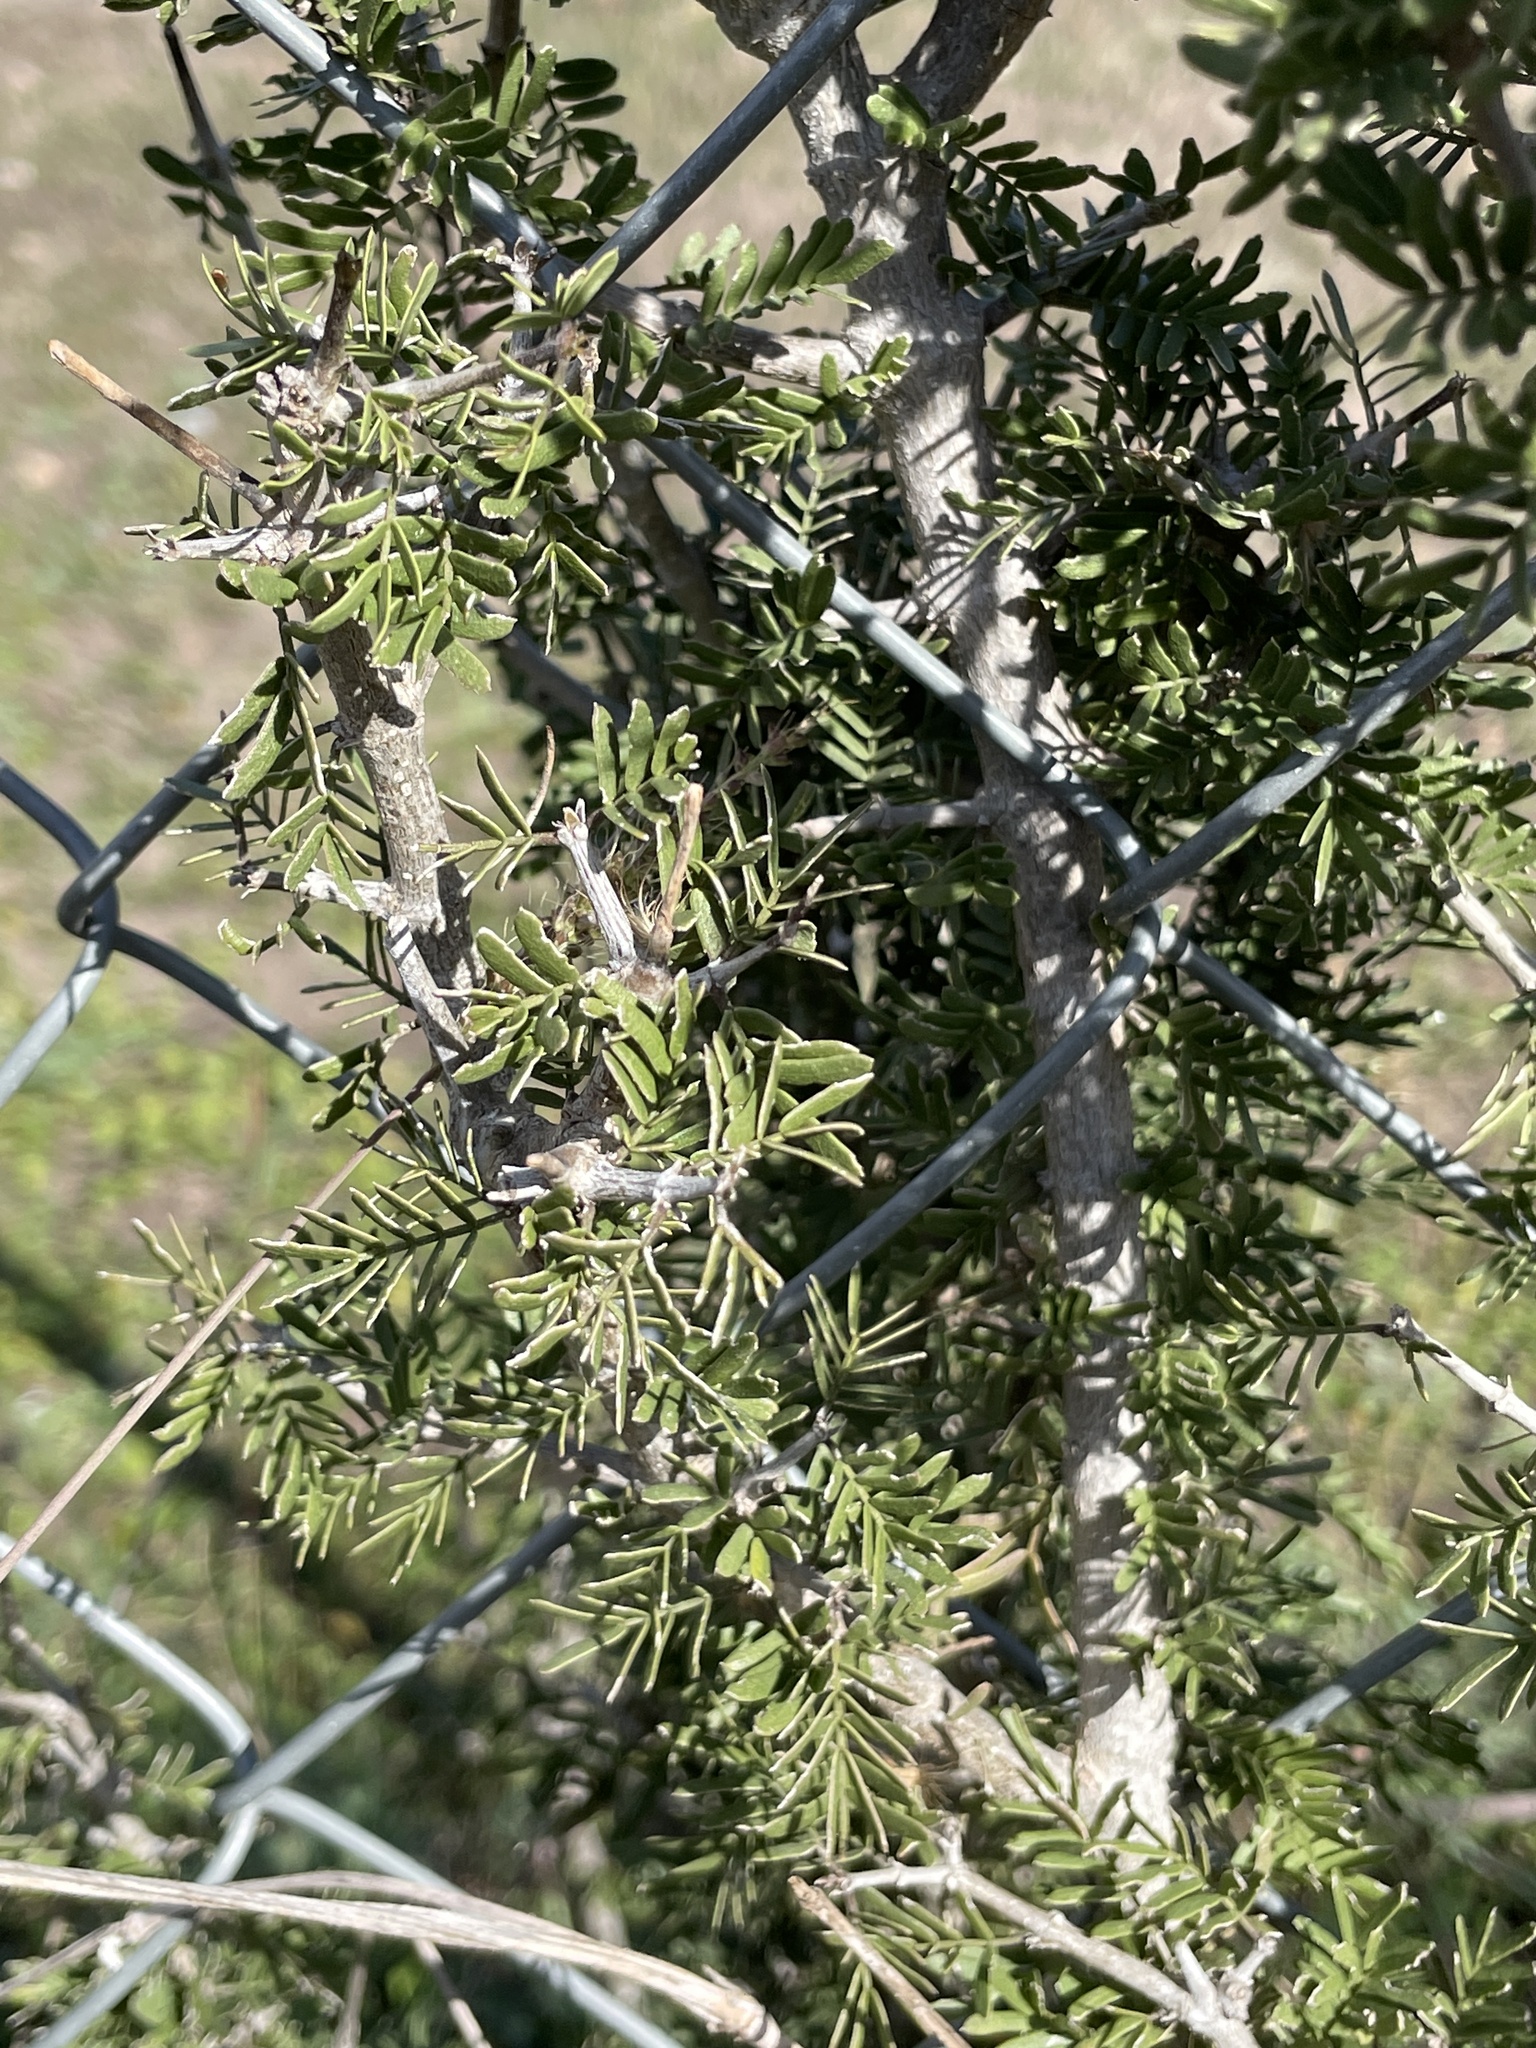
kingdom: Plantae
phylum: Tracheophyta
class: Magnoliopsida
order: Zygophyllales
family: Zygophyllaceae
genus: Porlieria
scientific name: Porlieria angustifolia
